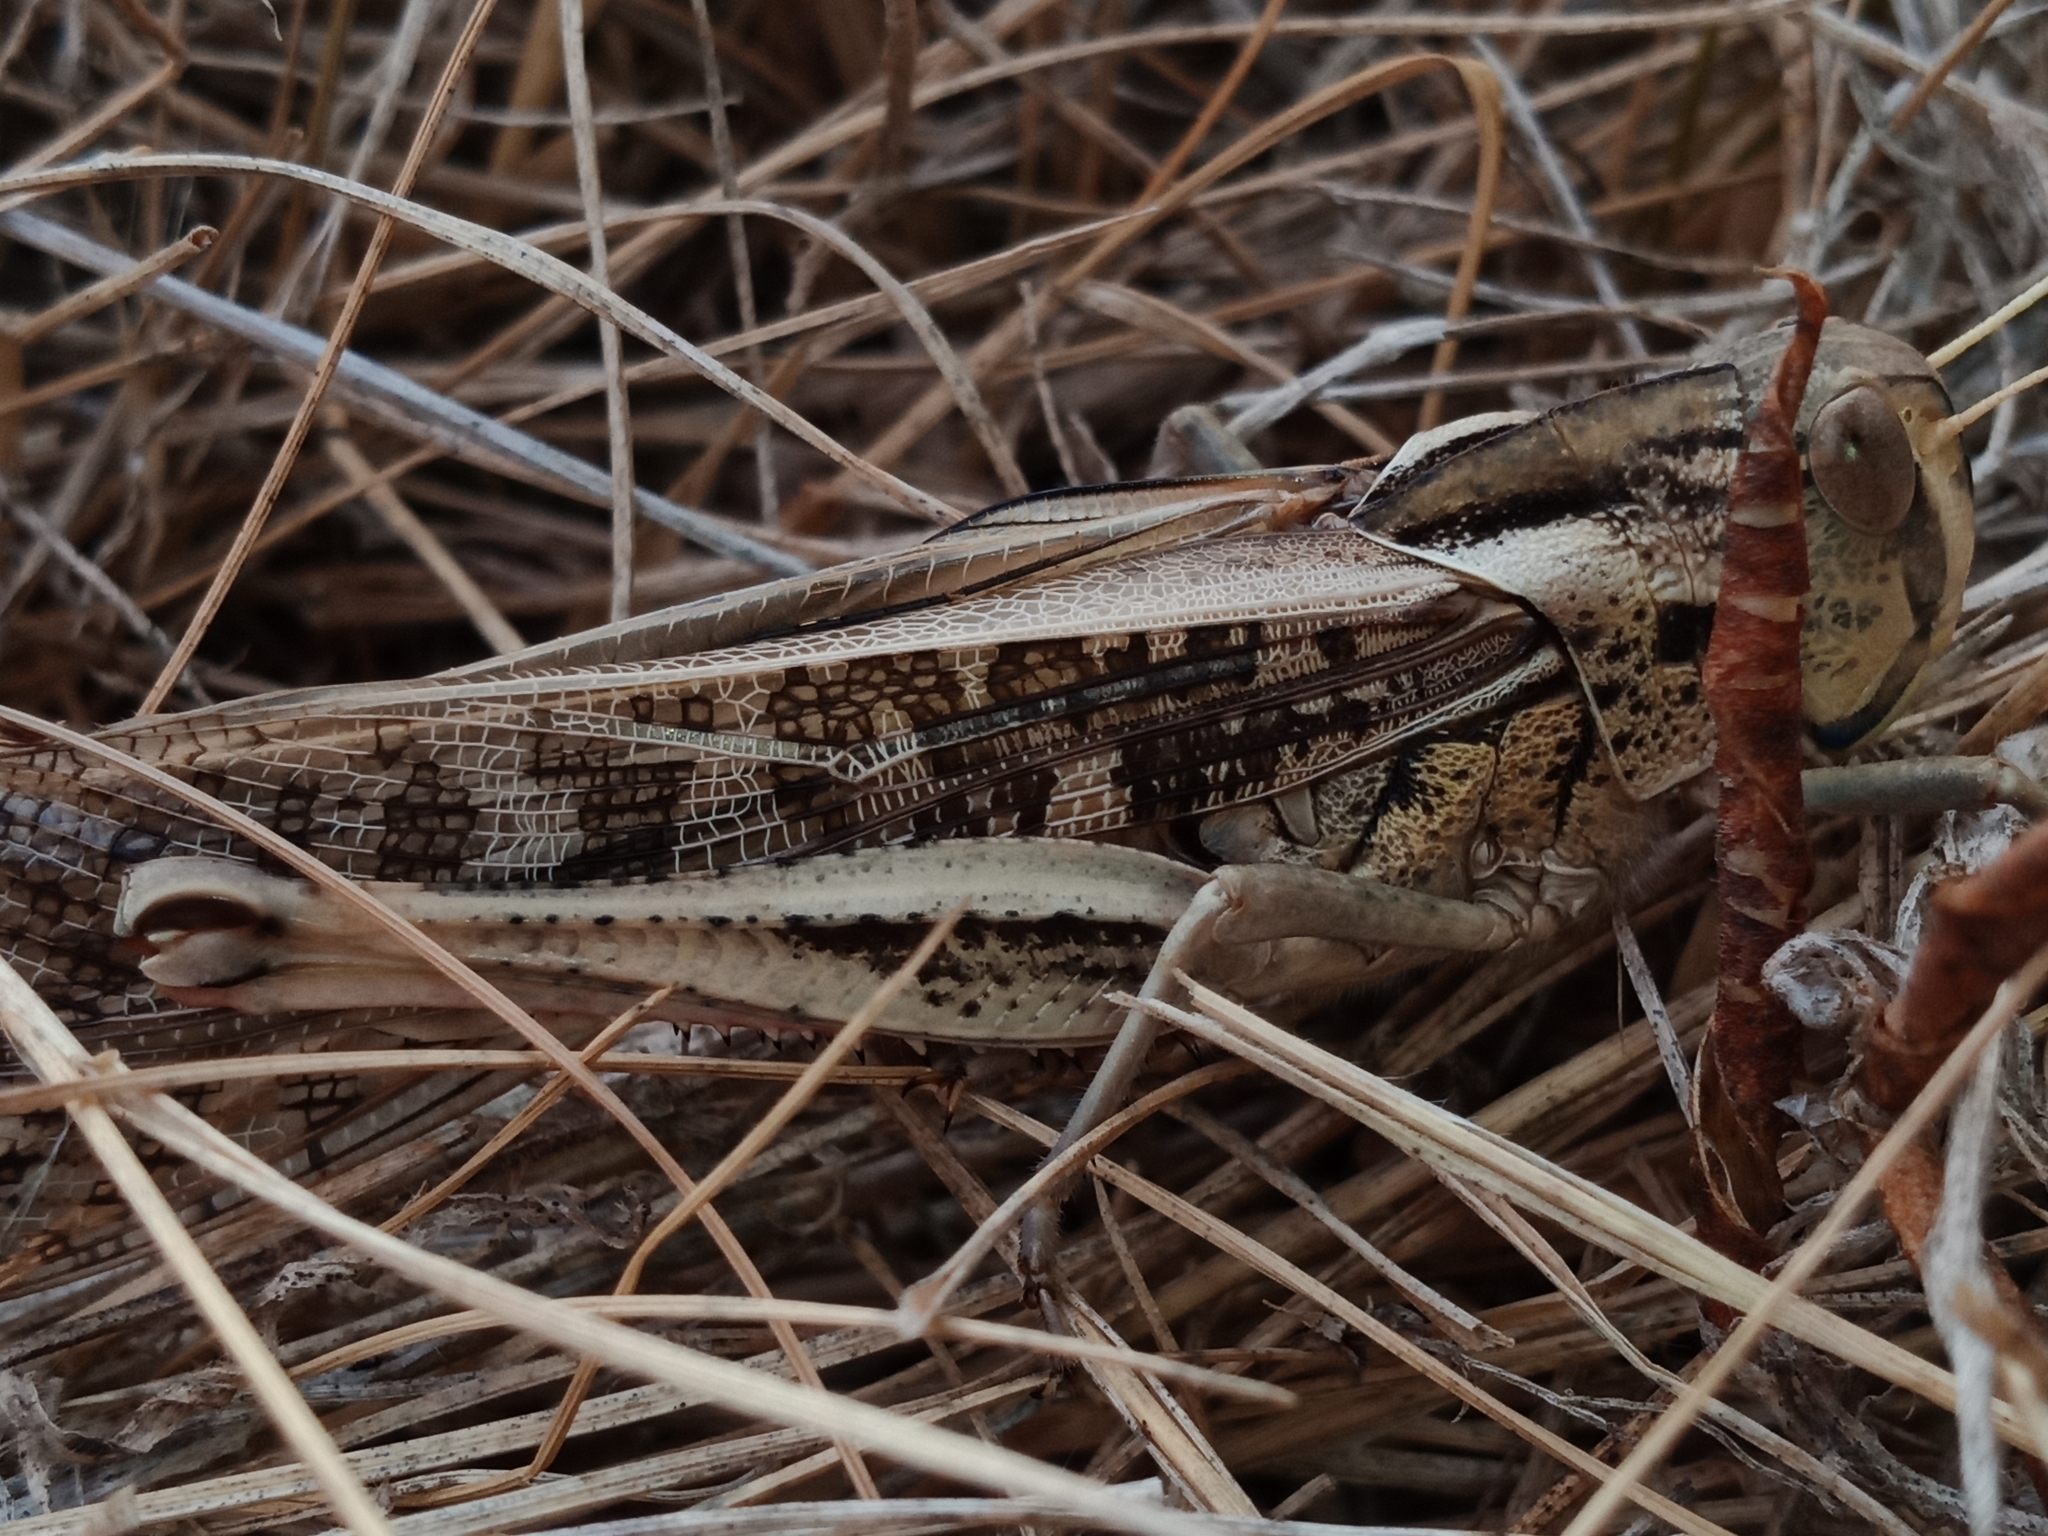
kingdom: Animalia
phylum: Arthropoda
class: Insecta
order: Orthoptera
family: Acrididae
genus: Locusta
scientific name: Locusta migratoria
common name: Migratory locust
